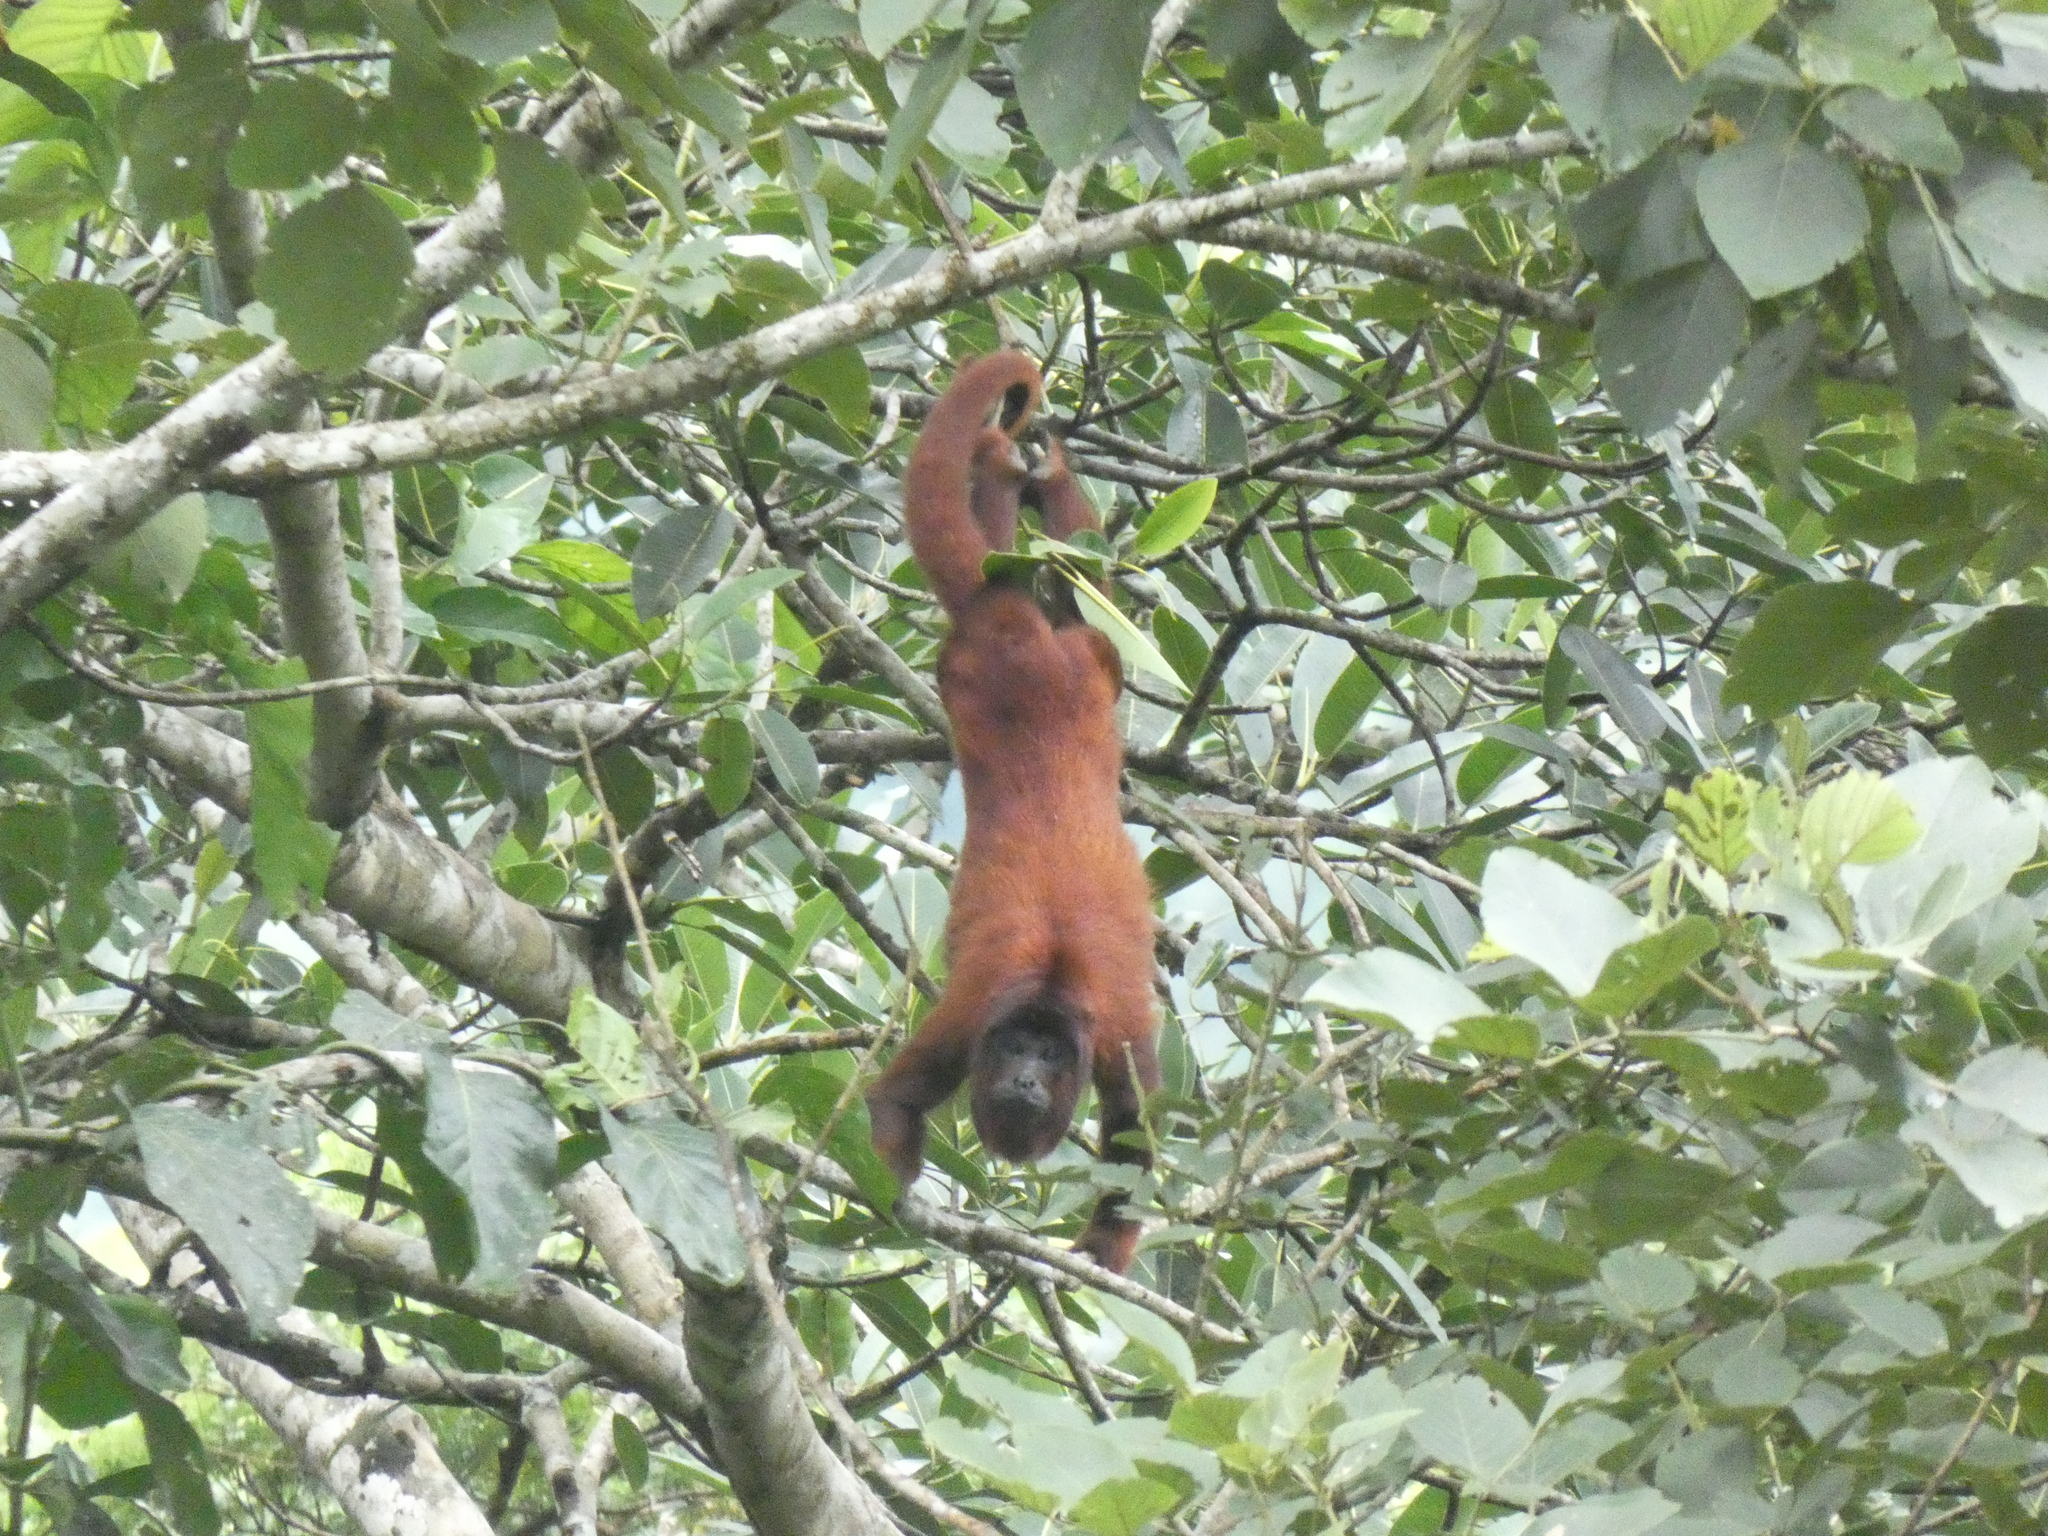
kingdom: Animalia
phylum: Chordata
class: Mammalia
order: Primates
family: Atelidae
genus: Alouatta
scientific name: Alouatta seniculus
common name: Venezuelan red howler
